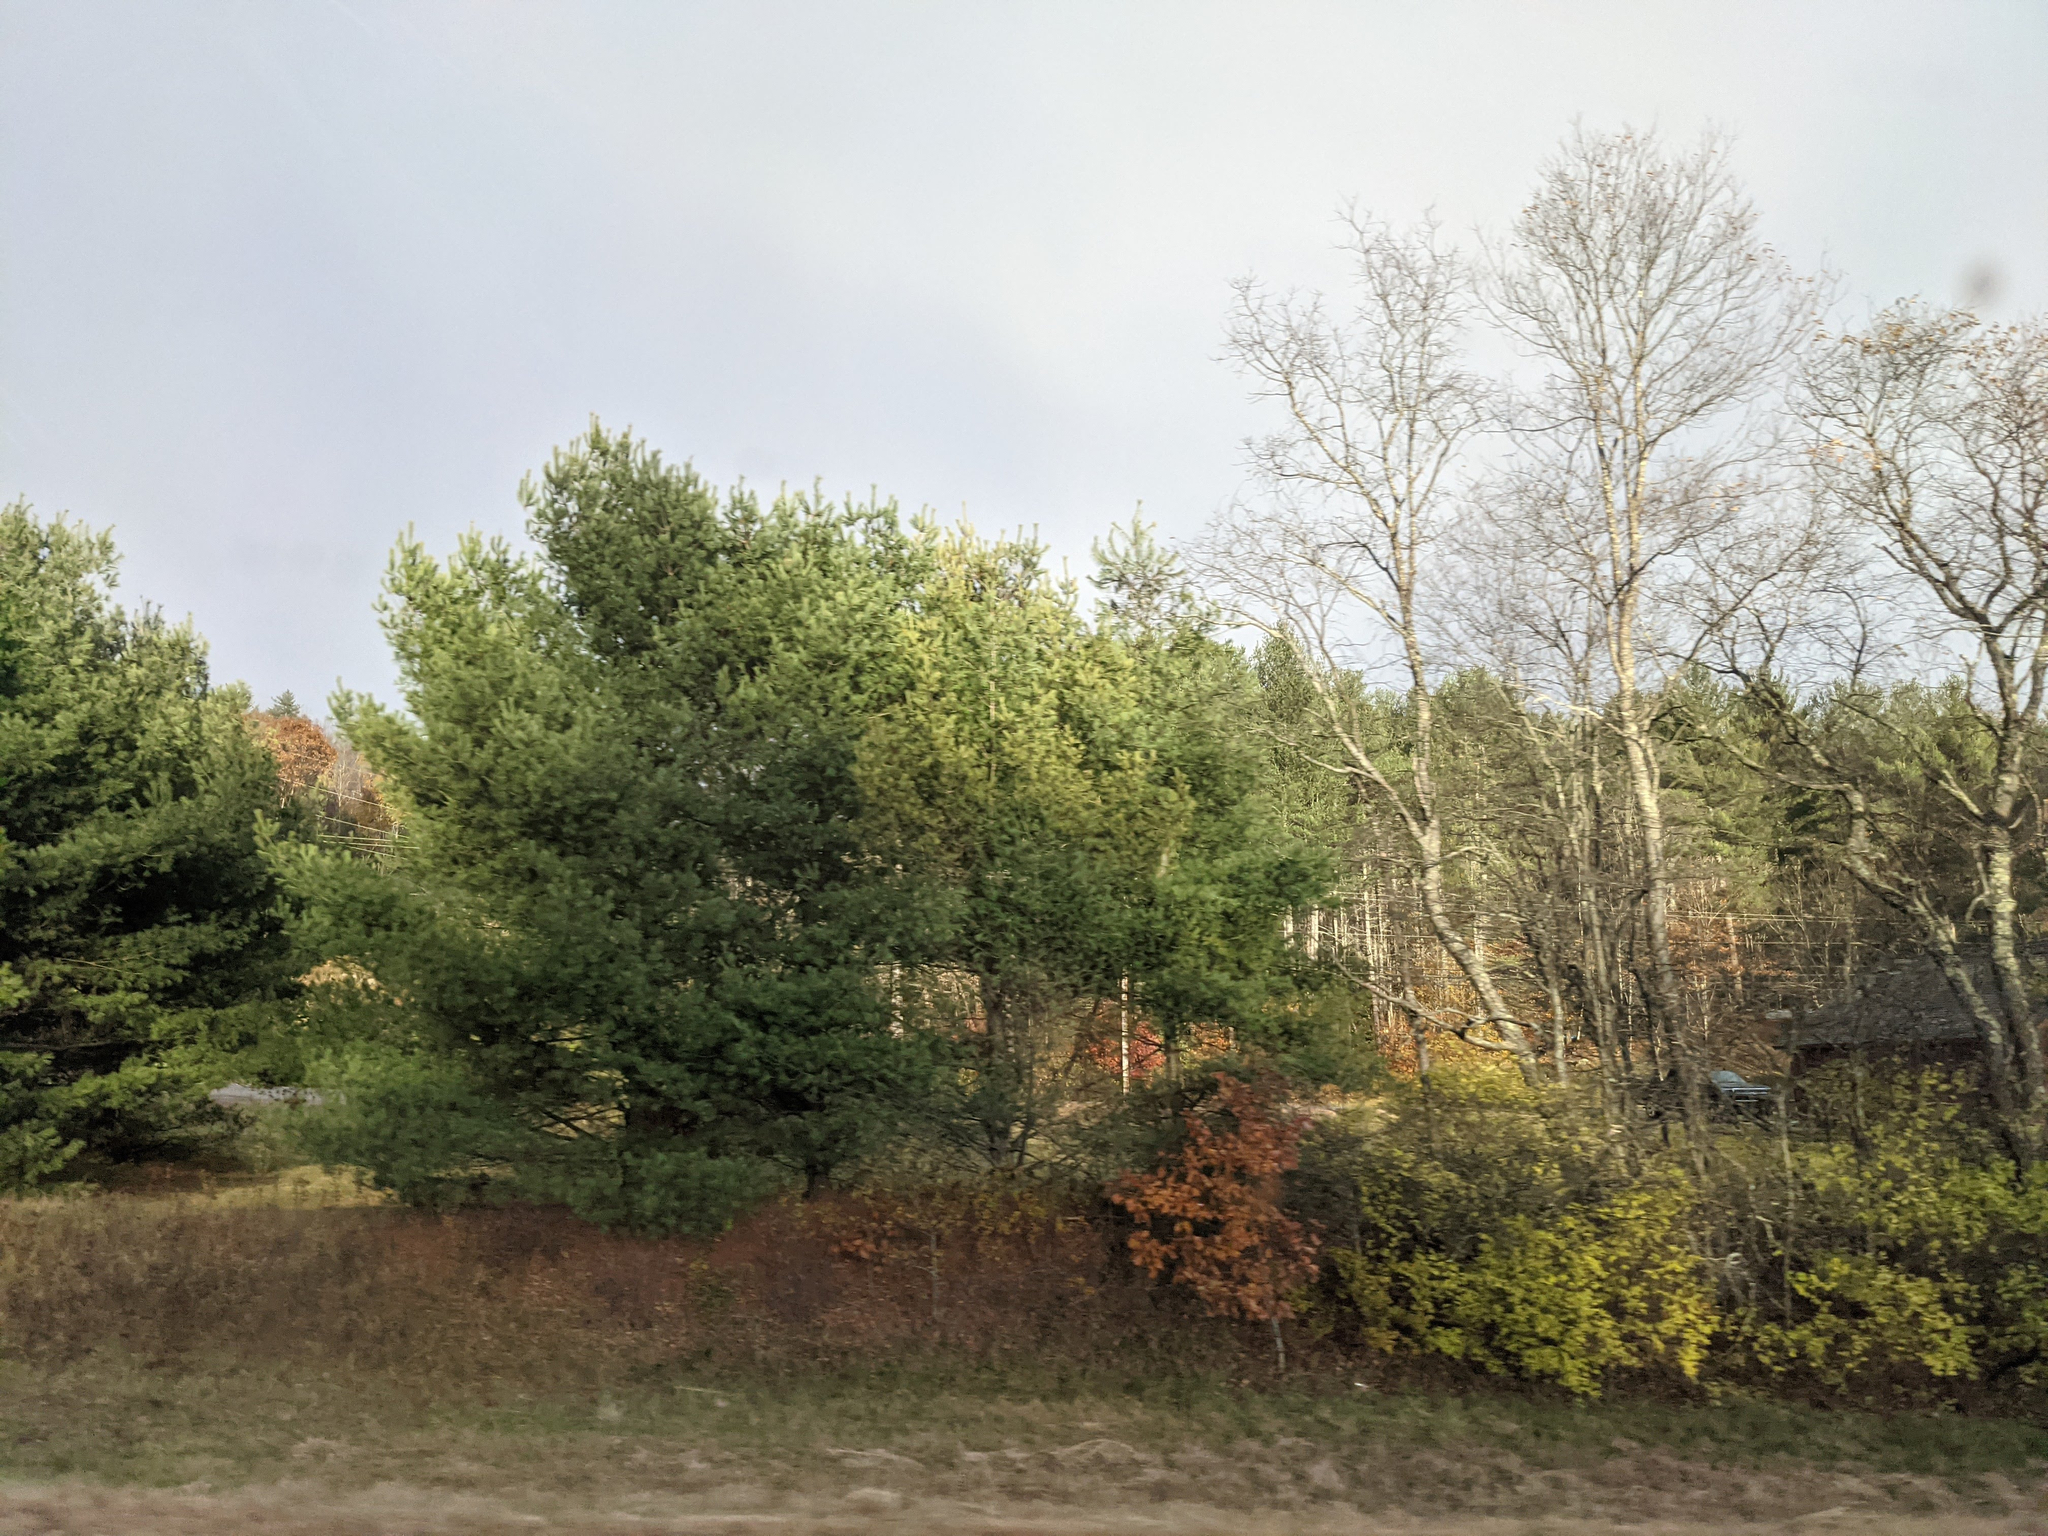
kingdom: Plantae
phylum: Tracheophyta
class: Pinopsida
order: Pinales
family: Pinaceae
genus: Pinus
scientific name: Pinus strobus
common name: Weymouth pine
